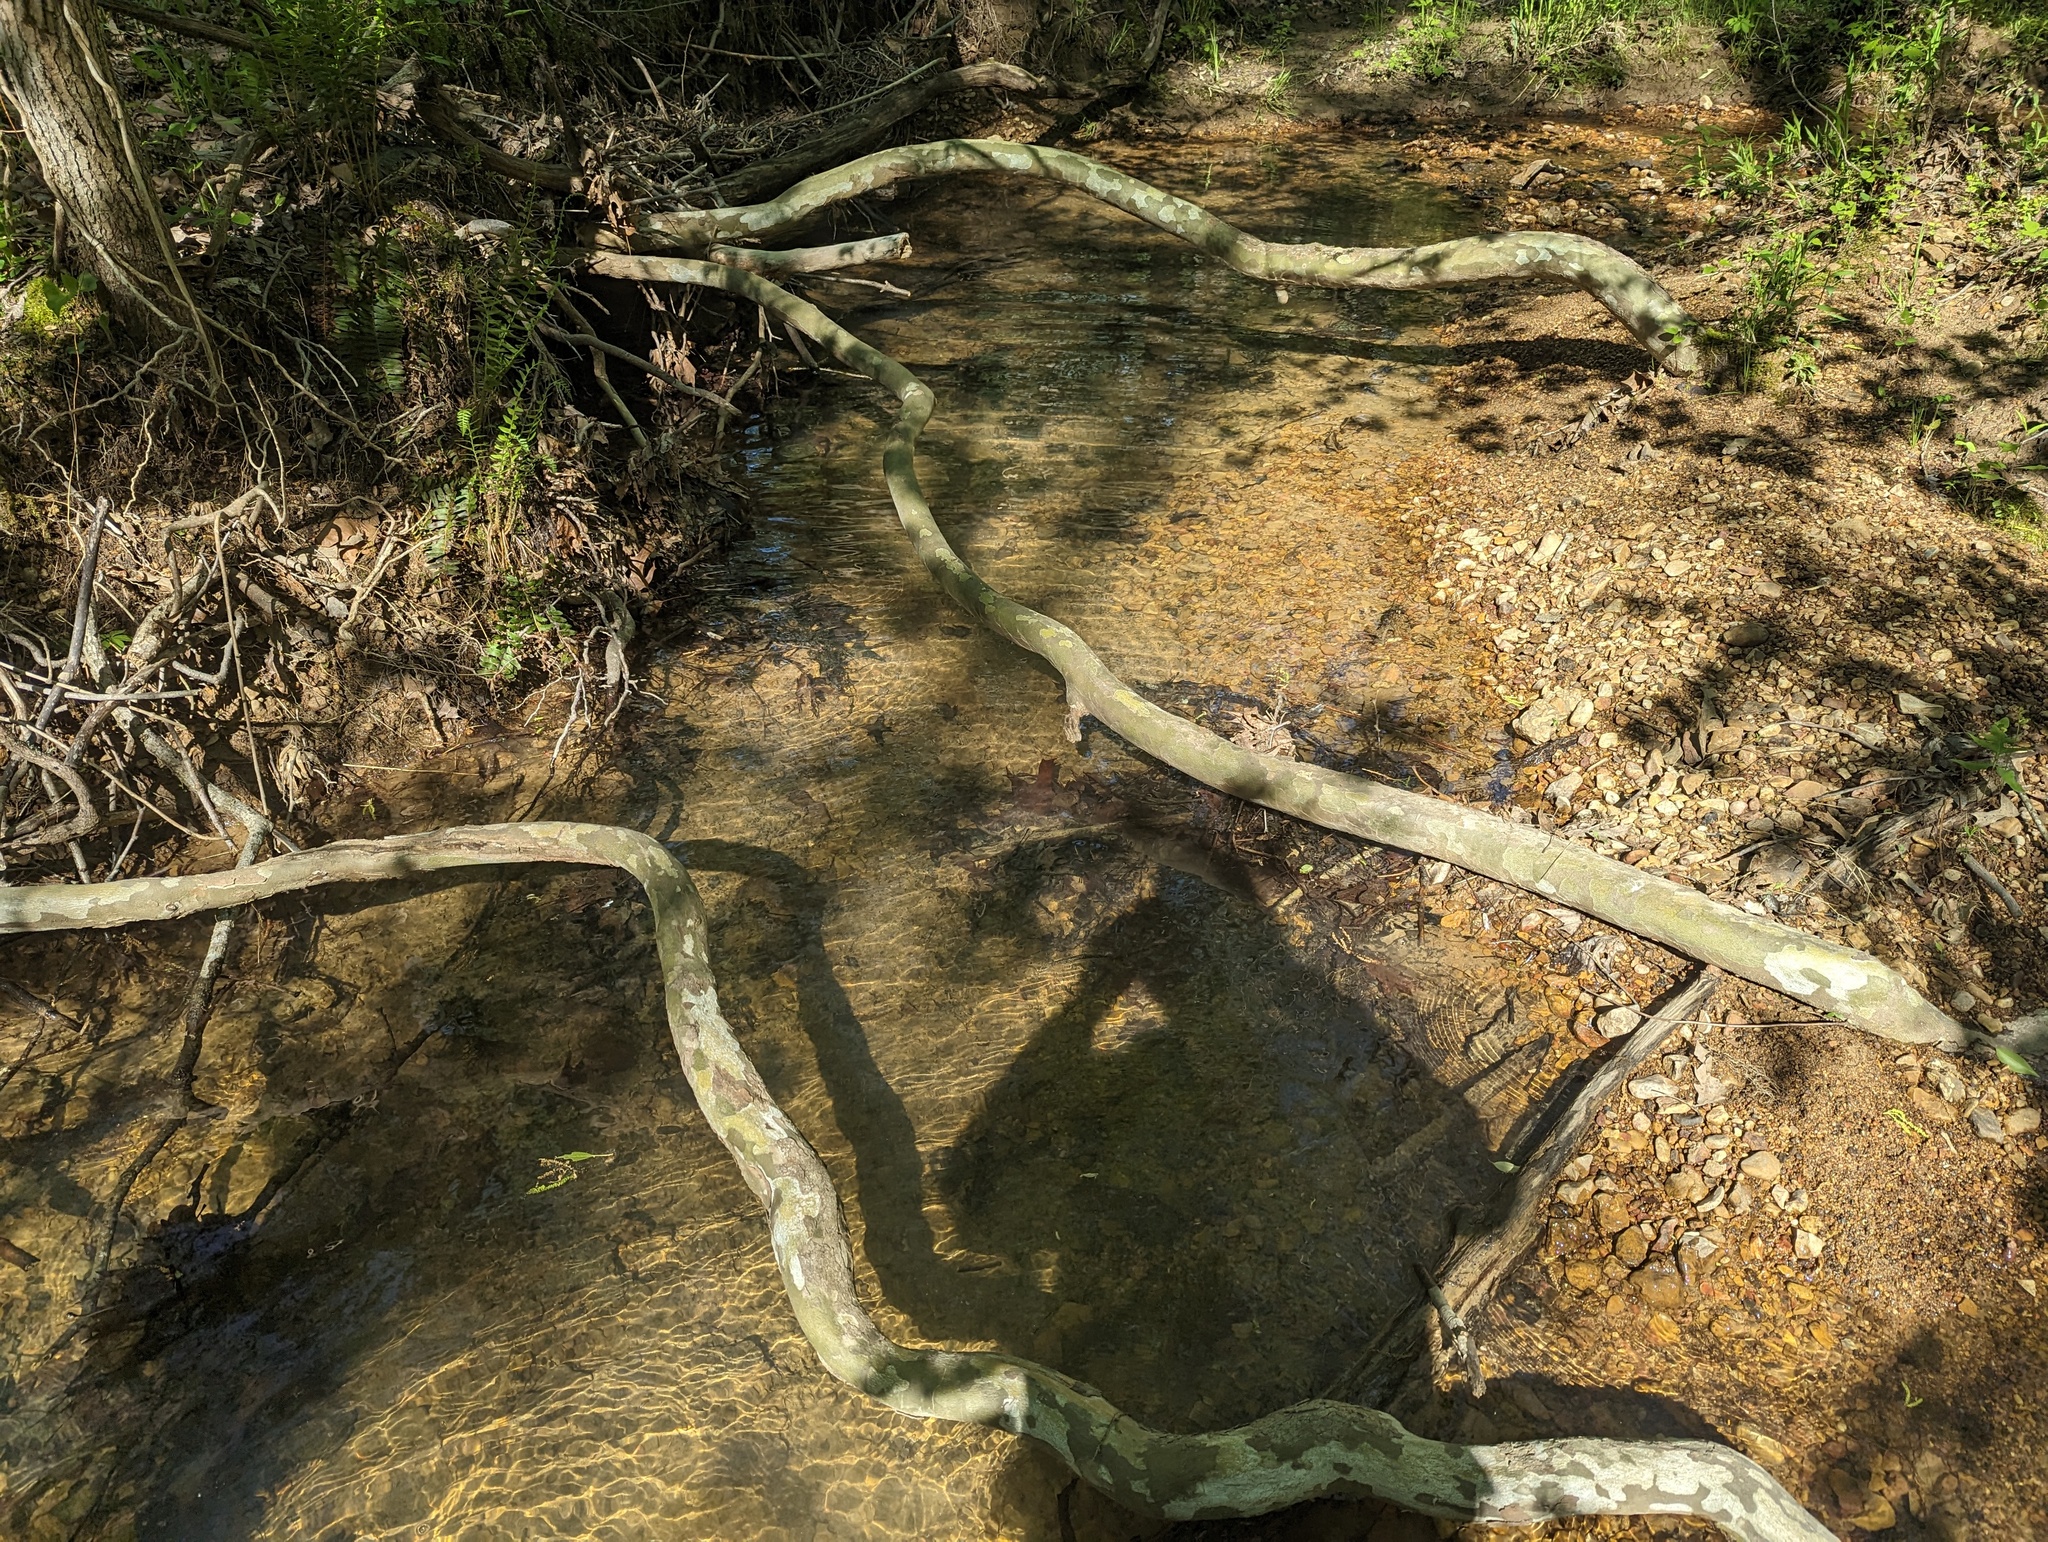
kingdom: Plantae
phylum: Tracheophyta
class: Magnoliopsida
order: Proteales
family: Platanaceae
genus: Platanus
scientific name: Platanus occidentalis
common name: American sycamore
